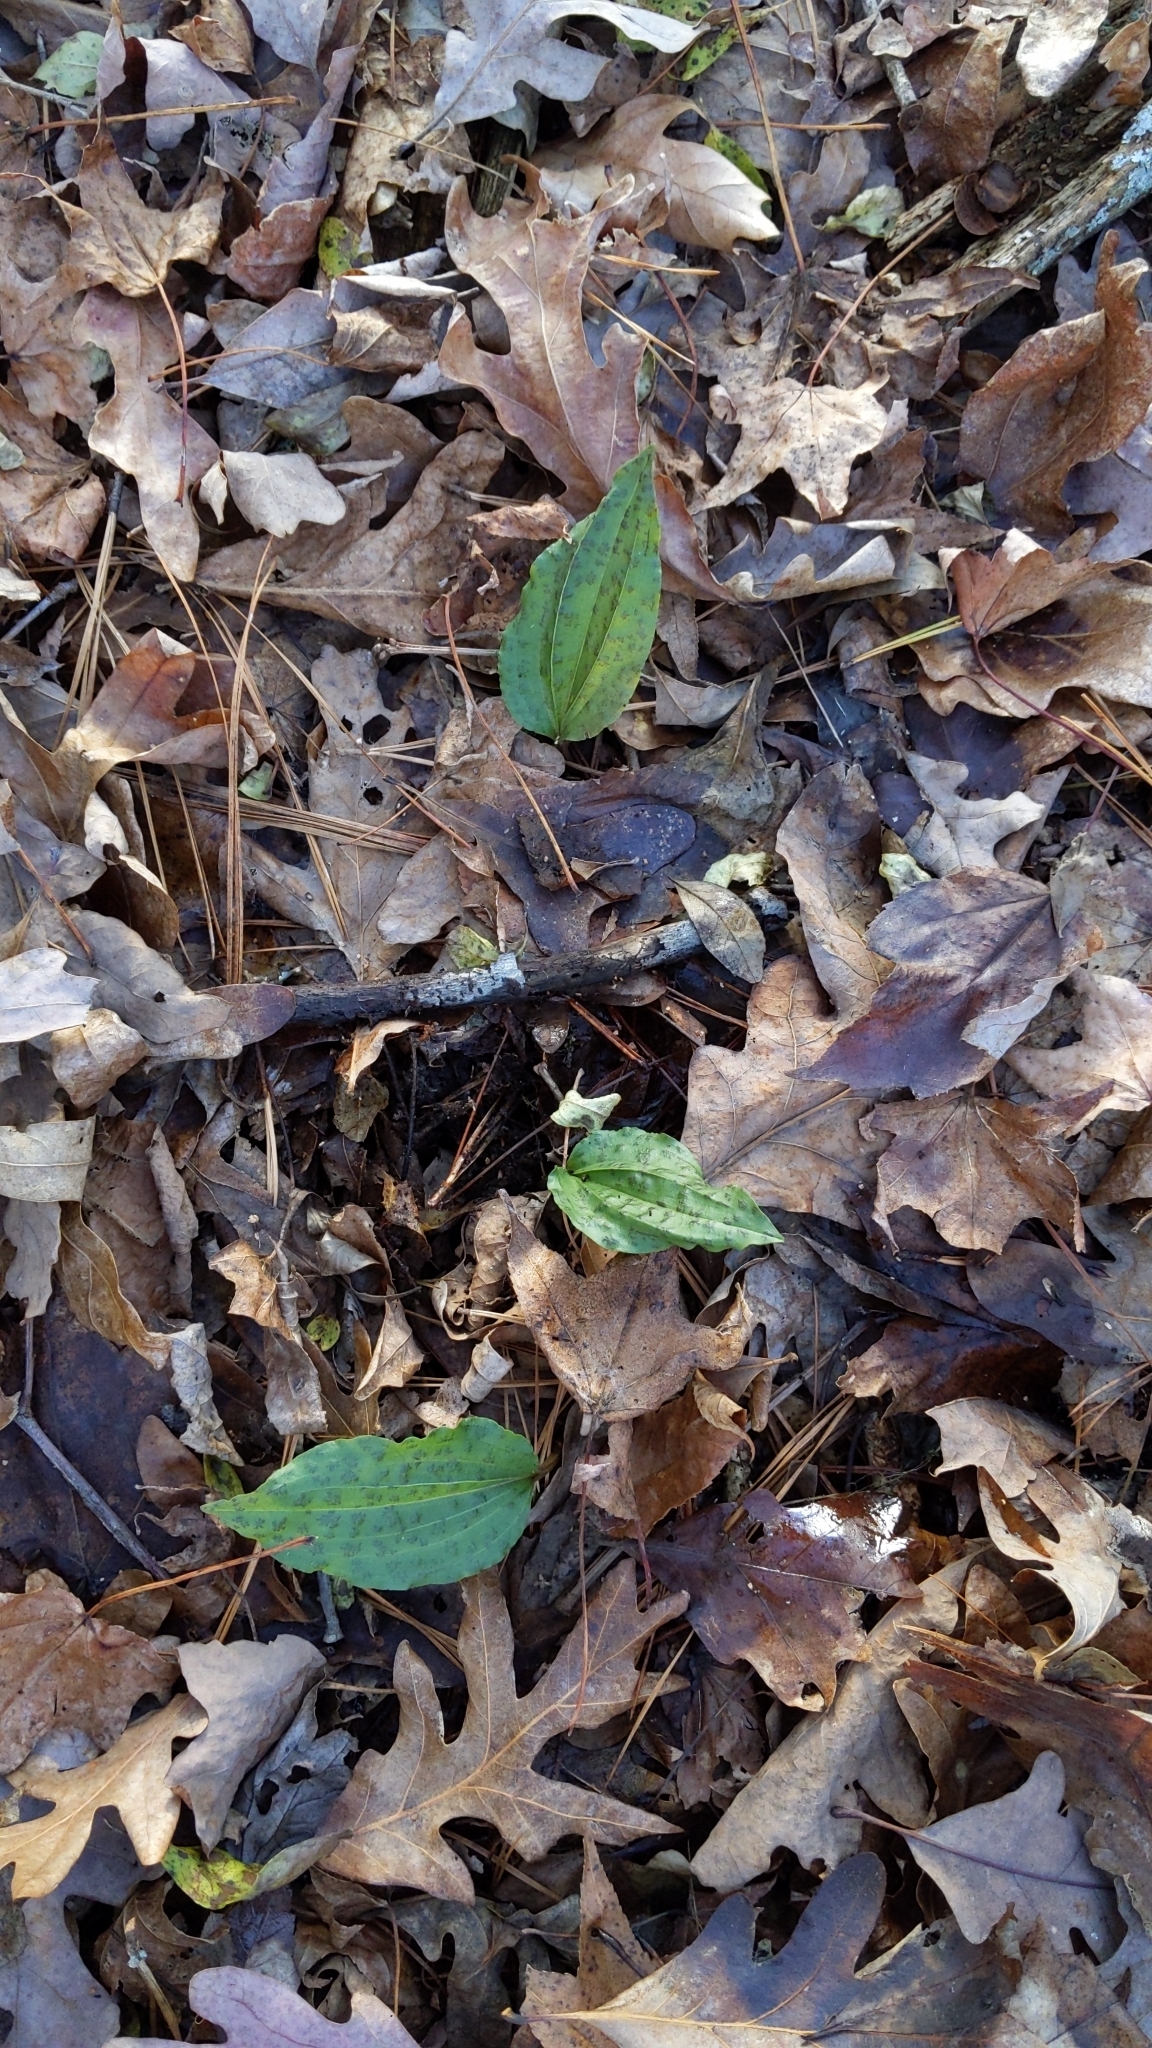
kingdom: Plantae
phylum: Tracheophyta
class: Liliopsida
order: Asparagales
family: Orchidaceae
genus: Tipularia
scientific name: Tipularia discolor
